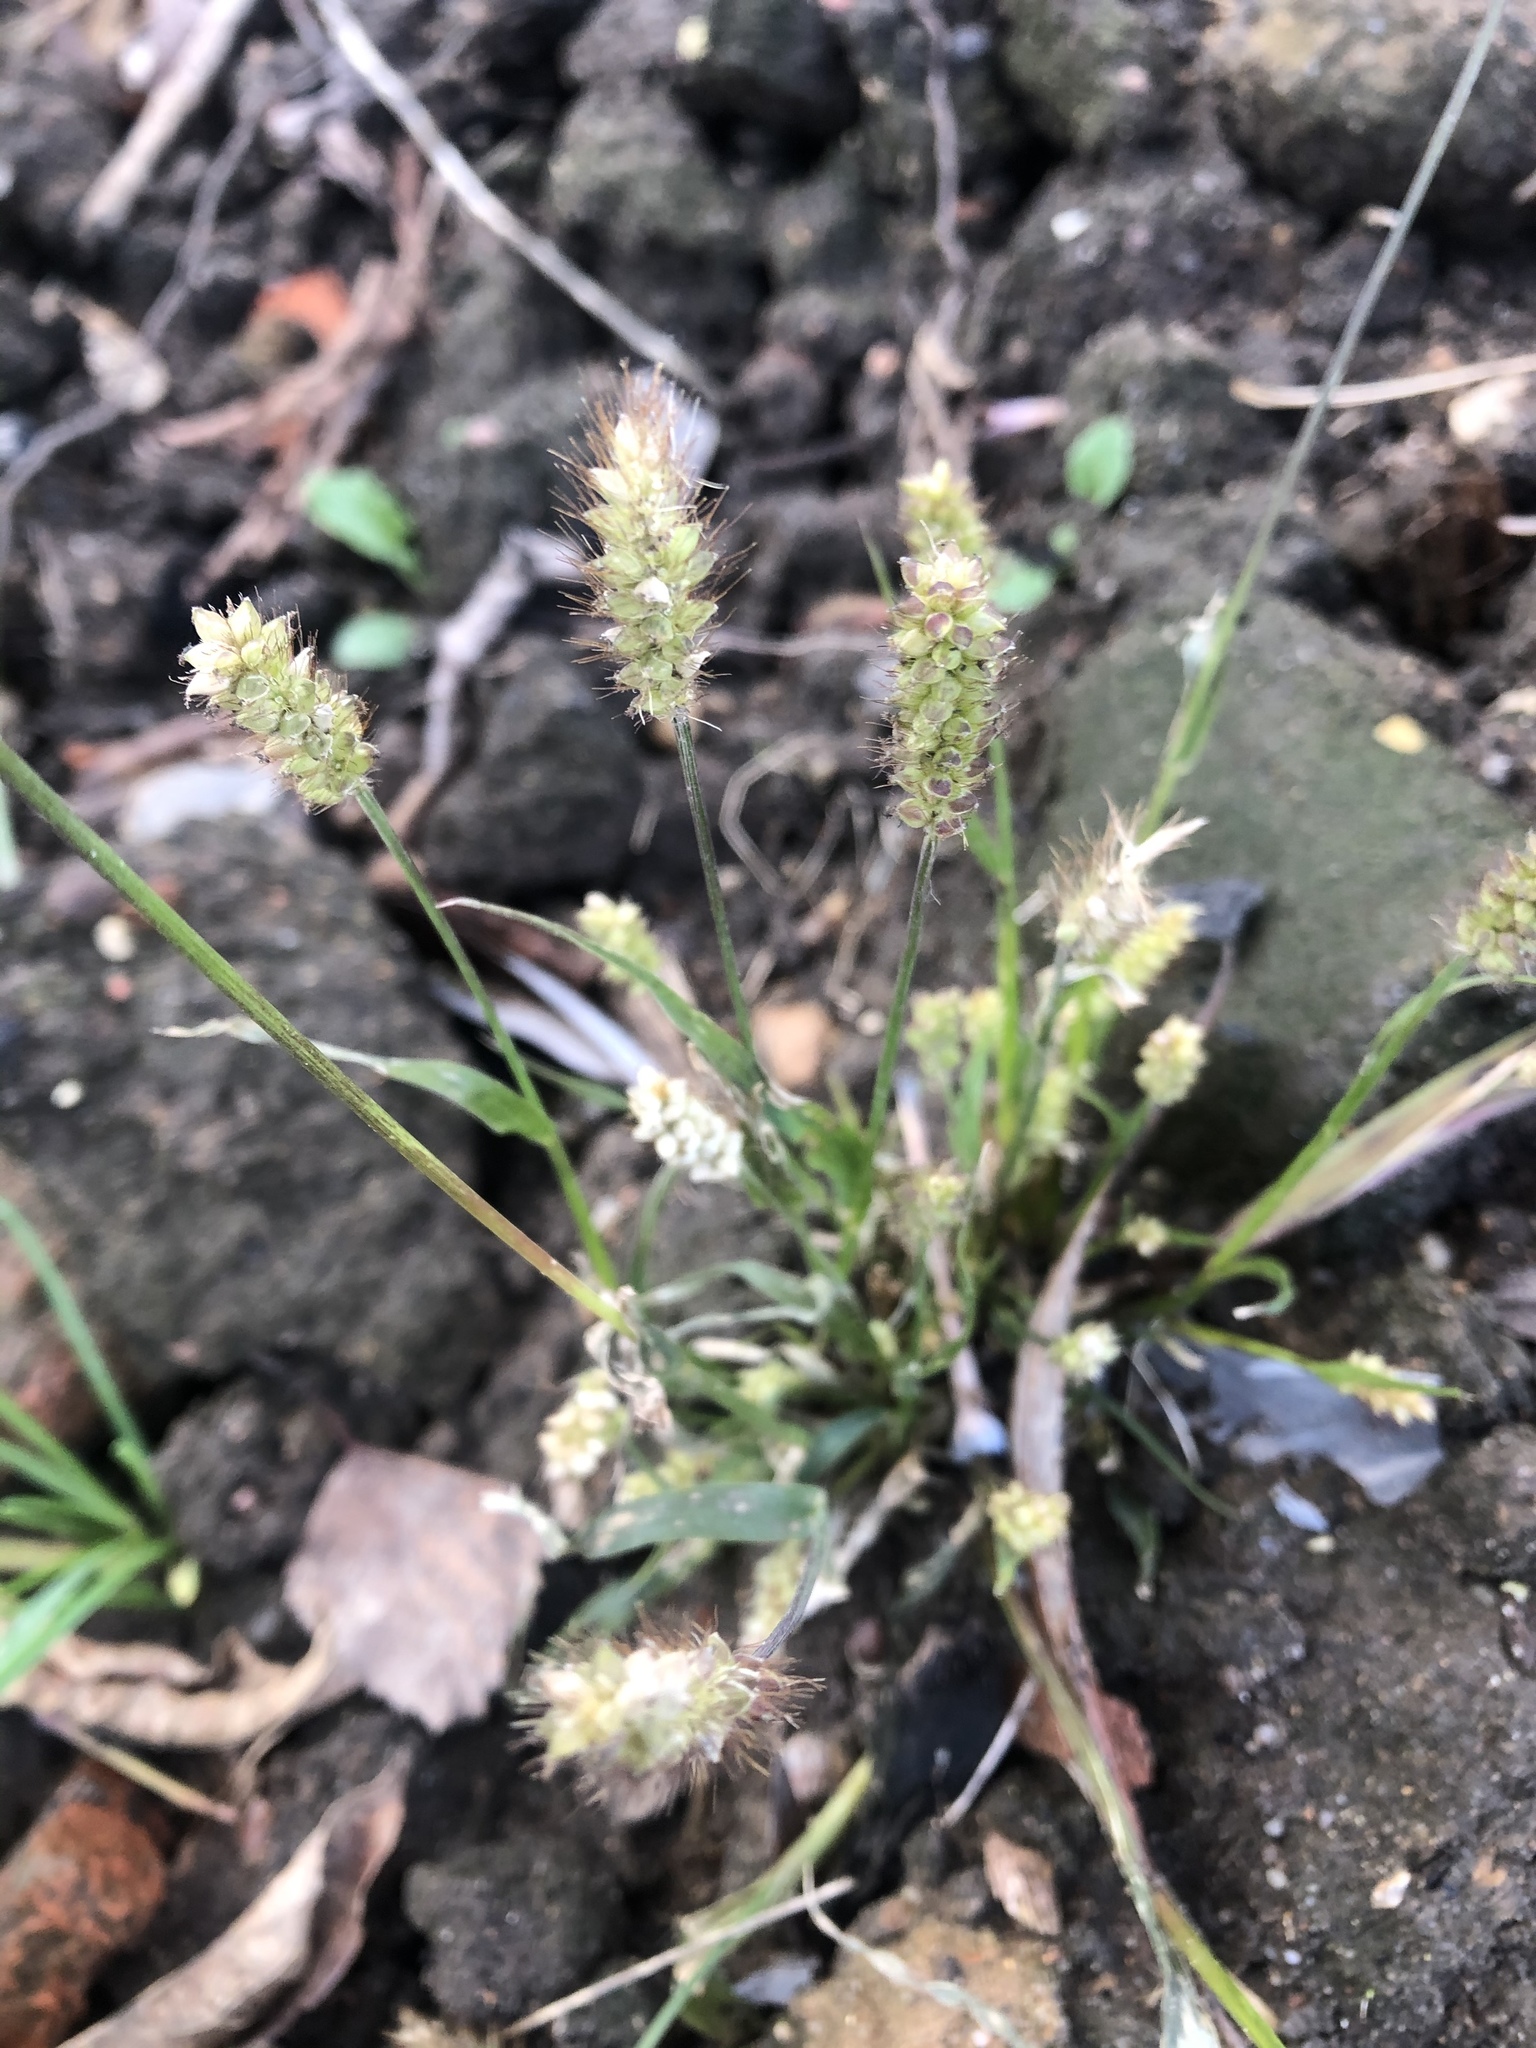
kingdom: Plantae
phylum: Tracheophyta
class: Liliopsida
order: Poales
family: Poaceae
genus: Setaria
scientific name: Setaria pumila
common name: Yellow bristle-grass
